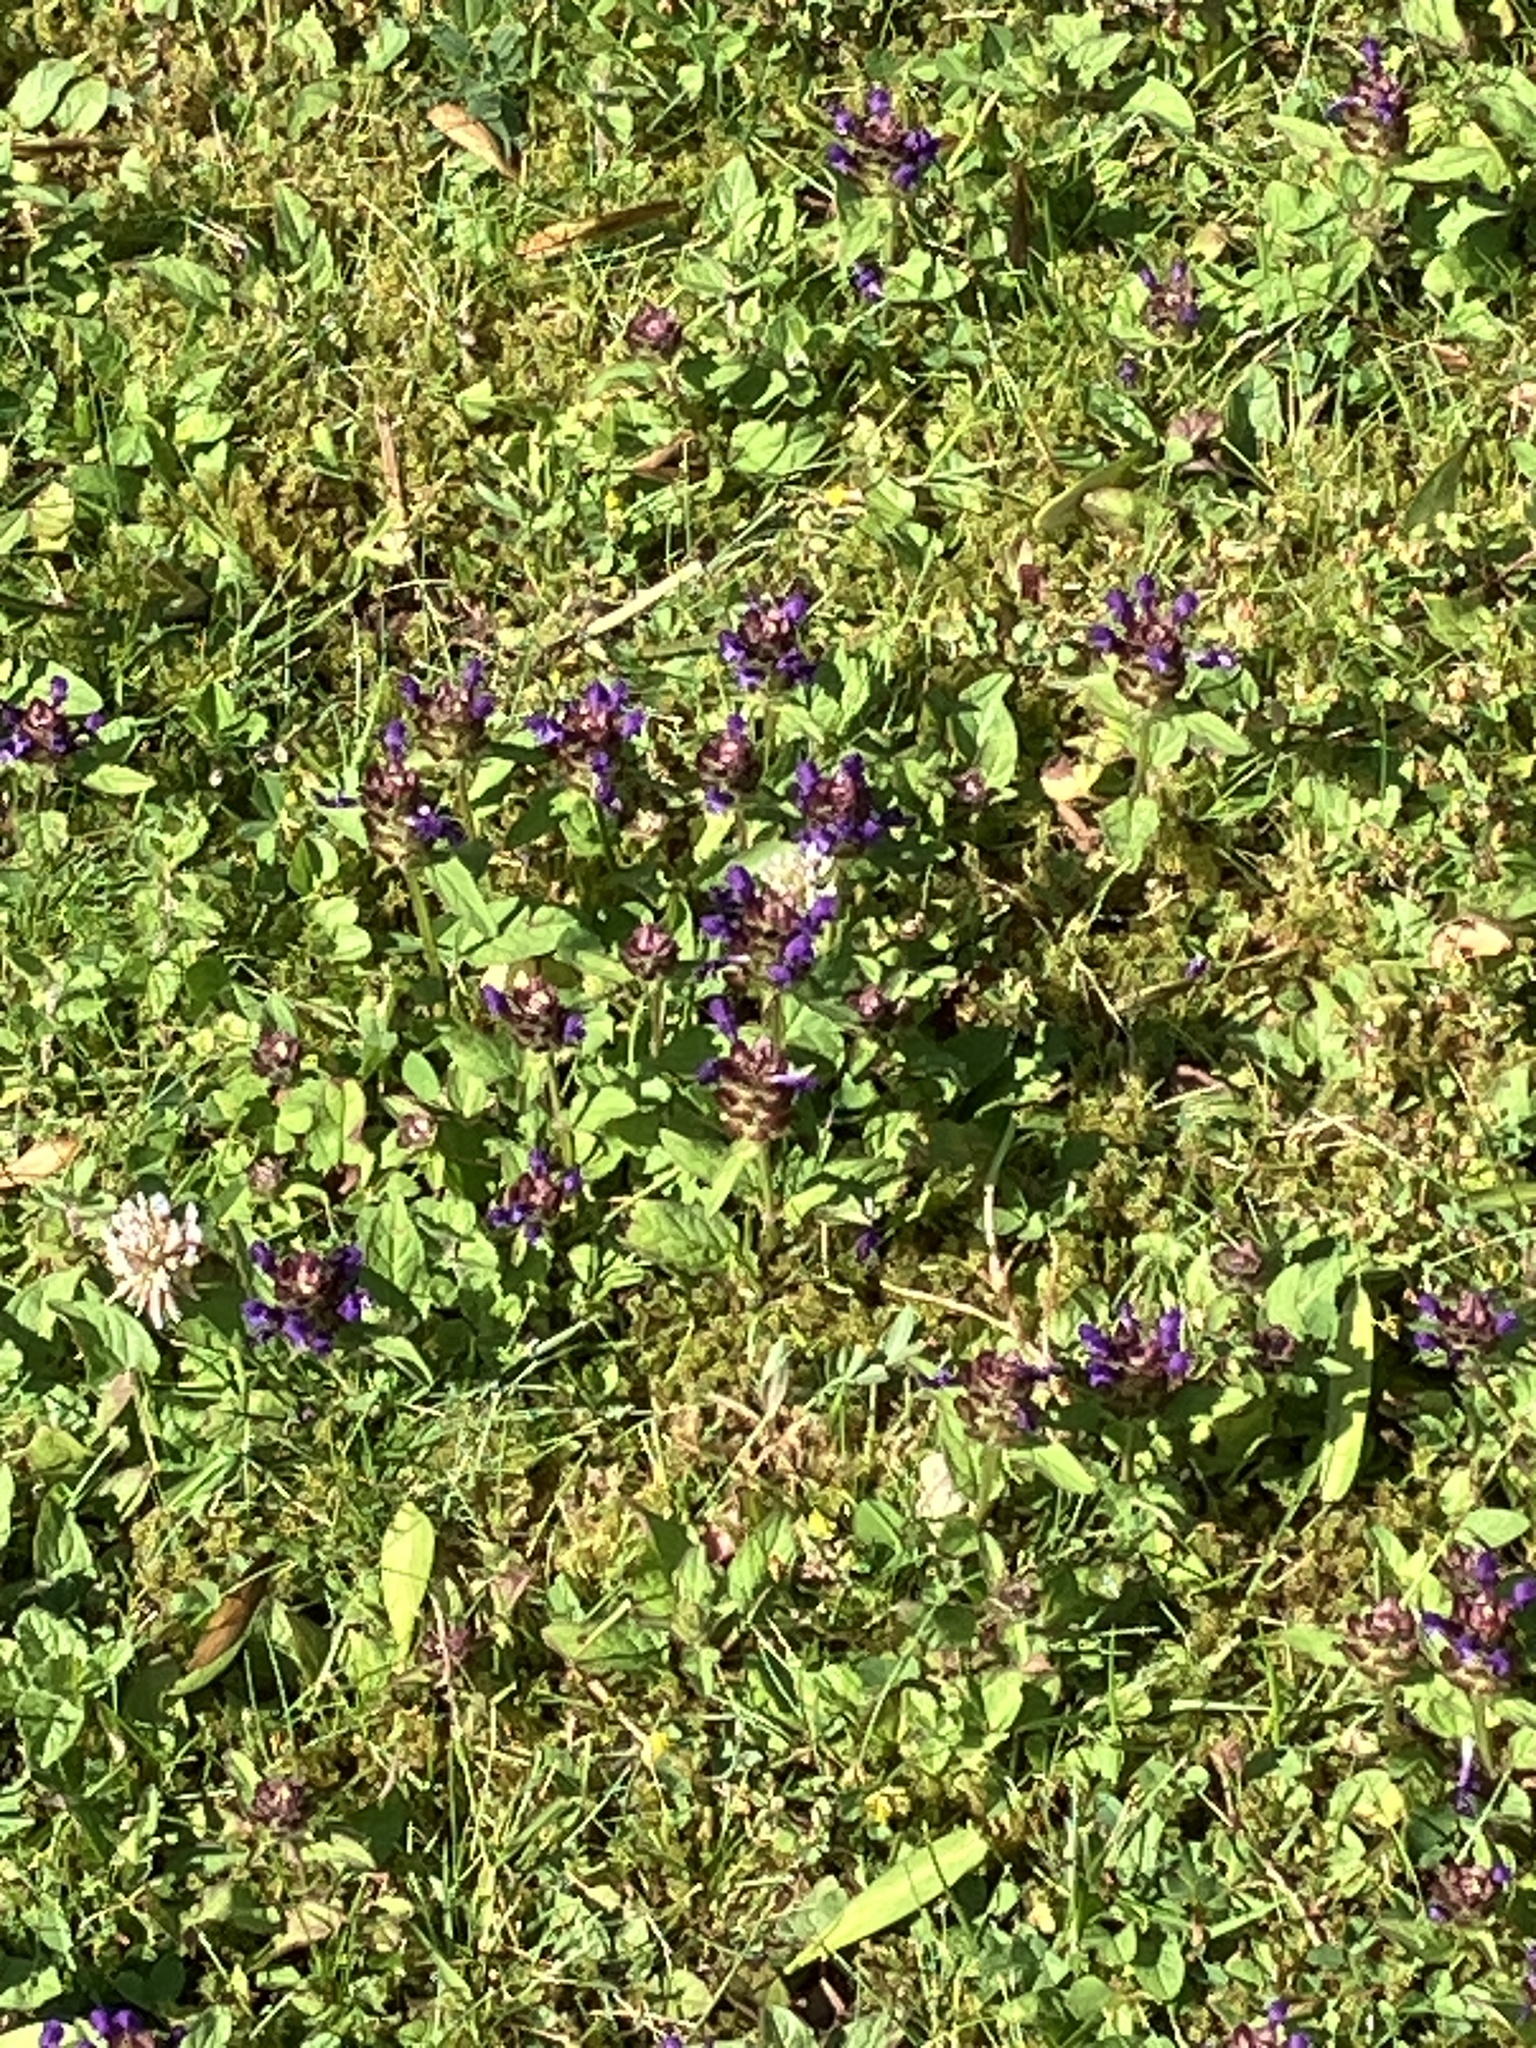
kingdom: Plantae
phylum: Tracheophyta
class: Magnoliopsida
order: Lamiales
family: Lamiaceae
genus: Prunella
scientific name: Prunella vulgaris
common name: Heal-all
